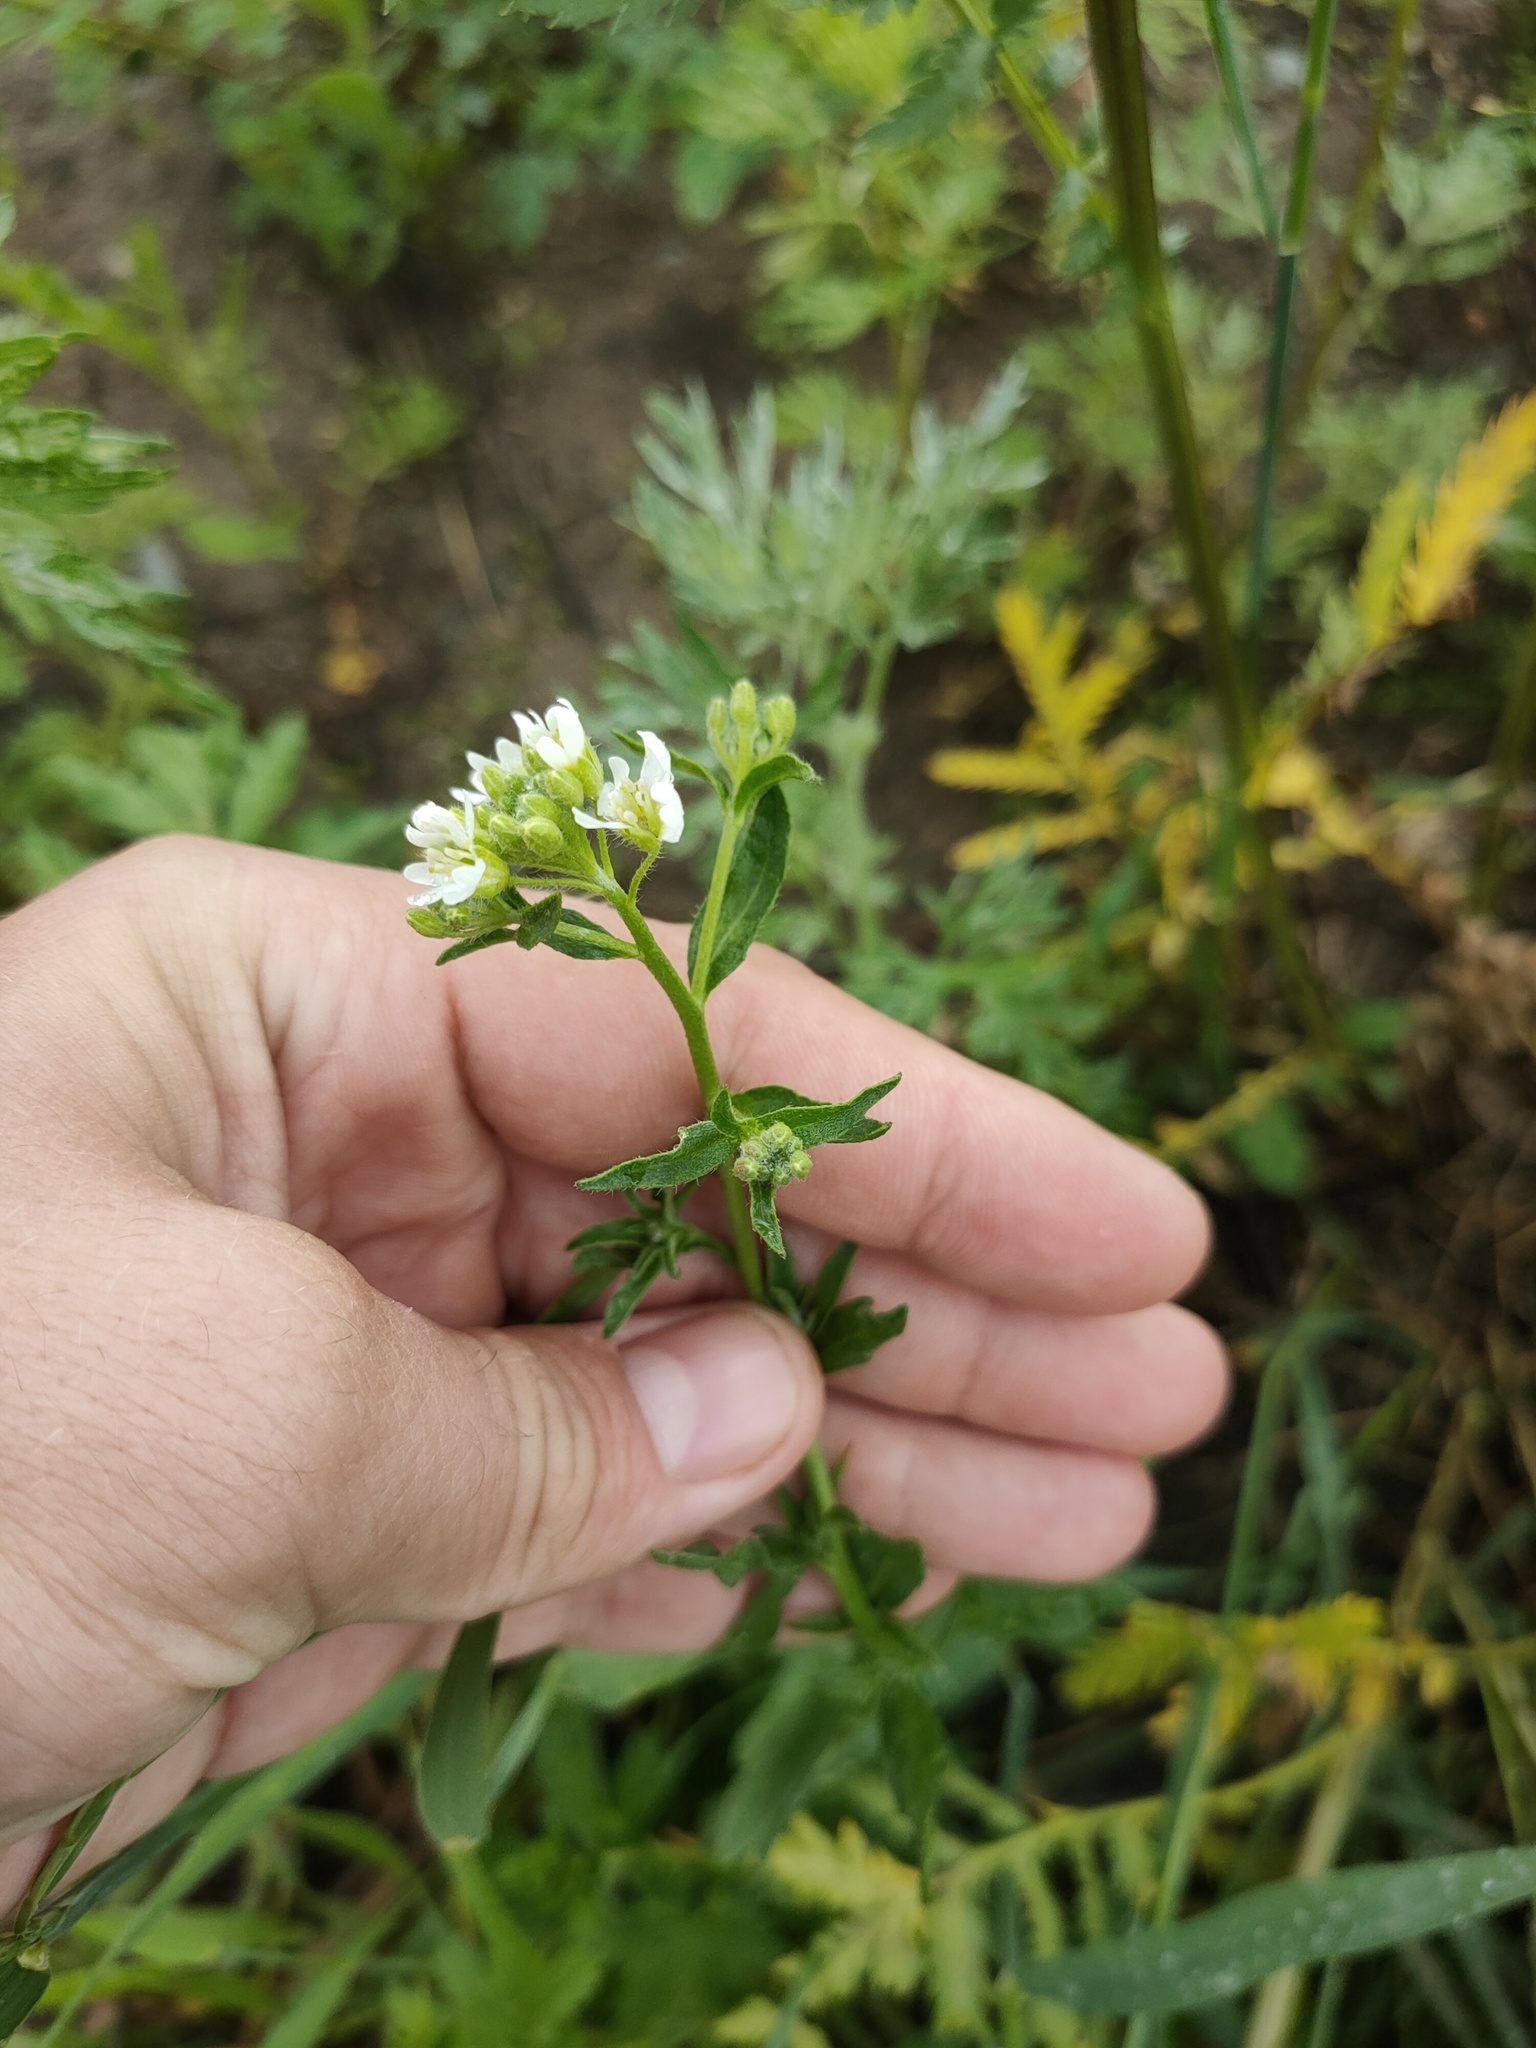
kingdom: Plantae
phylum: Tracheophyta
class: Magnoliopsida
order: Brassicales
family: Brassicaceae
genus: Berteroa
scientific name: Berteroa incana
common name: Hoary alison
